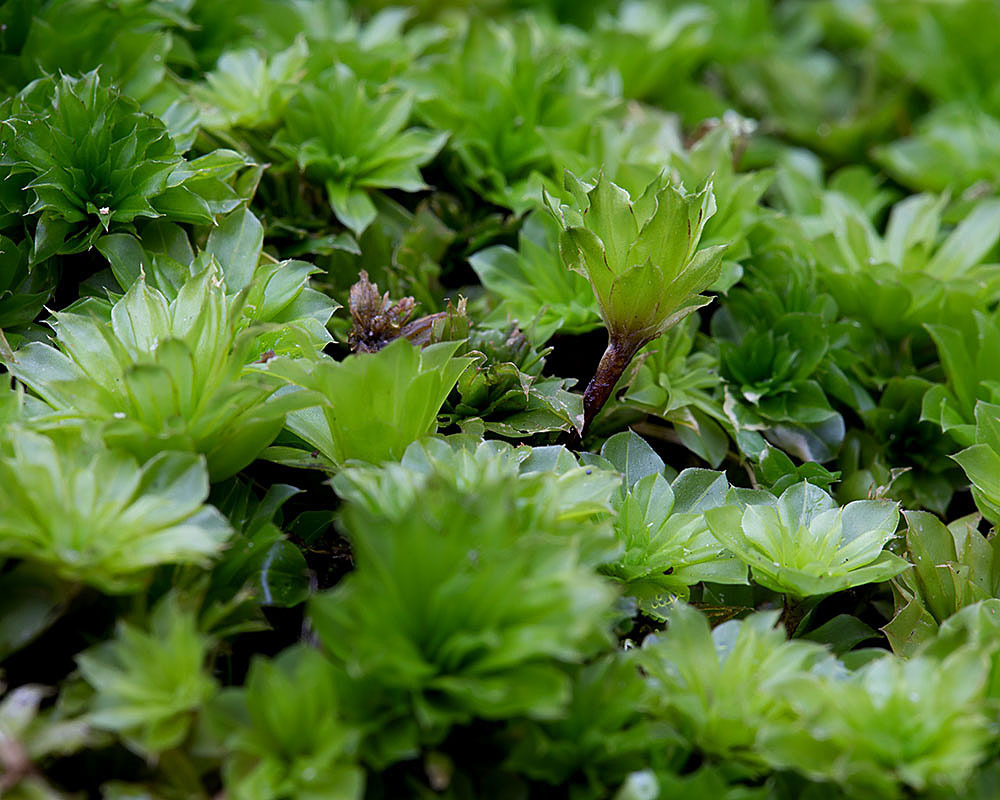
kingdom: Plantae
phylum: Bryophyta
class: Bryopsida
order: Bryales
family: Bryaceae
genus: Rhodobryum
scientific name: Rhodobryum ontariense
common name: Ontario rhodobryum moss
